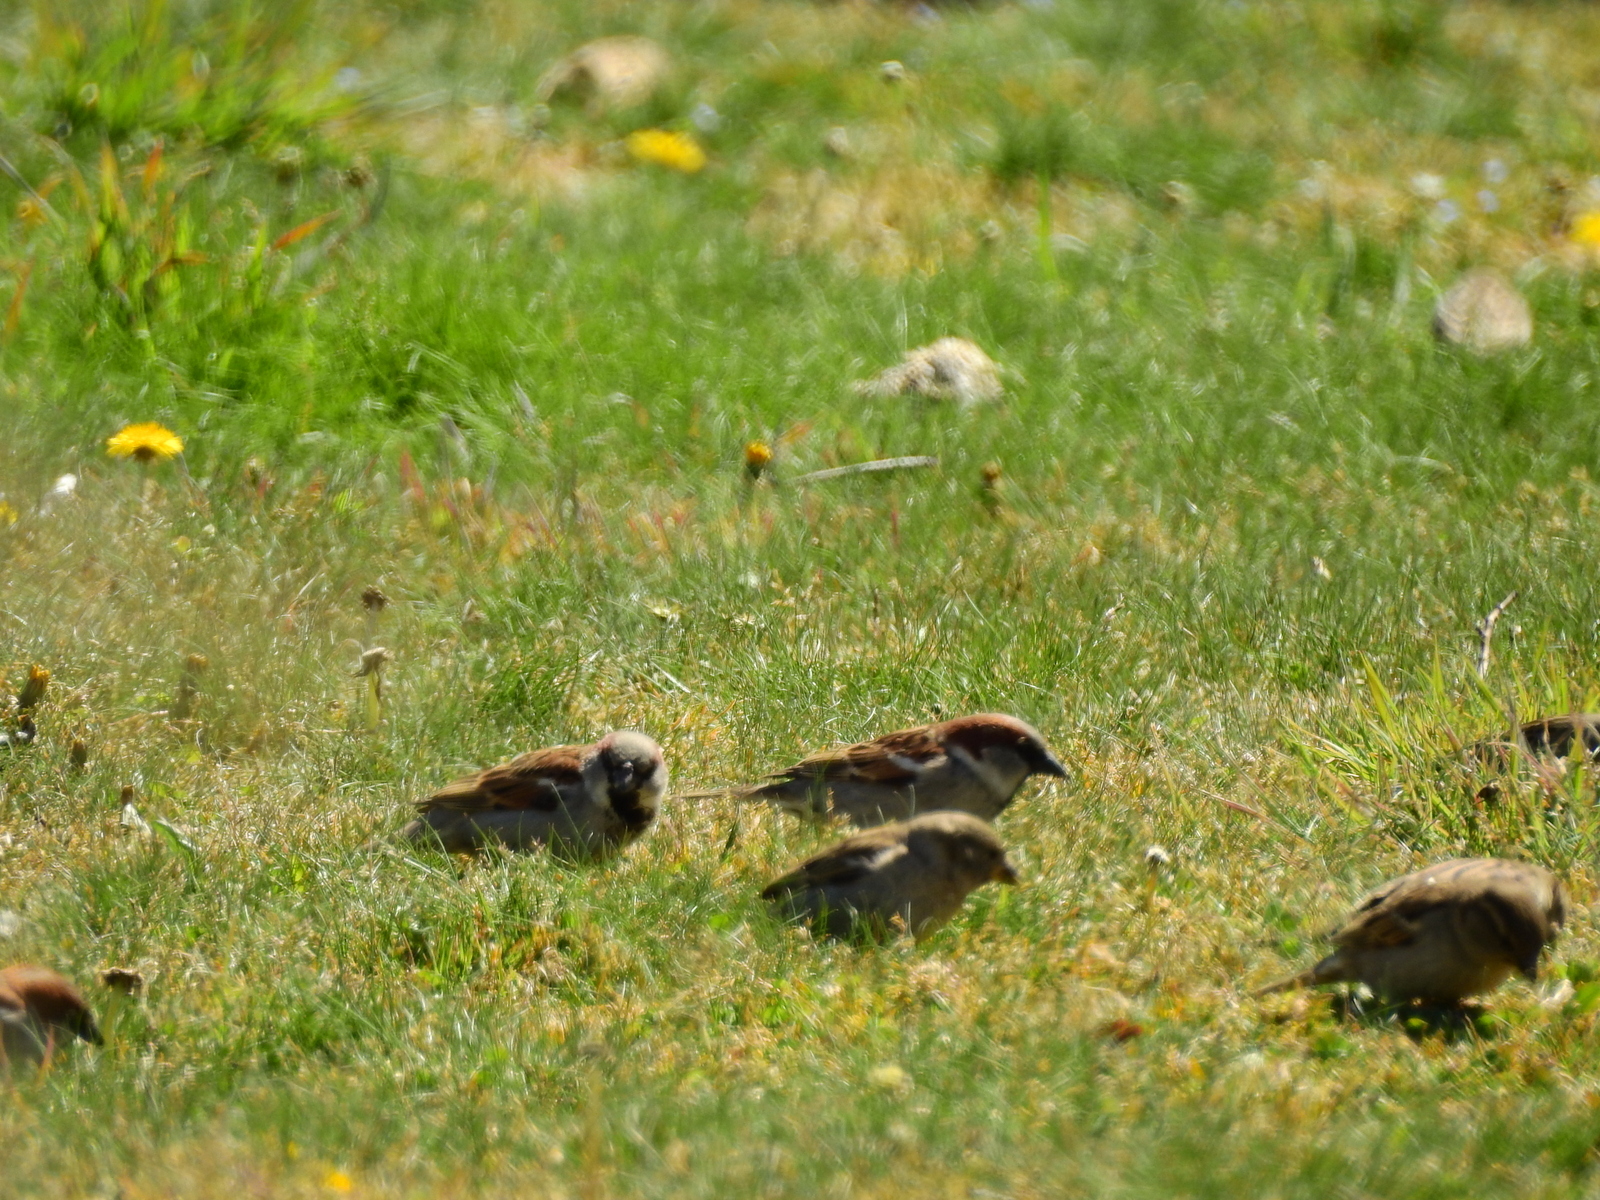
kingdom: Animalia
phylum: Chordata
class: Aves
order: Passeriformes
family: Passeridae
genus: Passer
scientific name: Passer domesticus
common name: House sparrow
